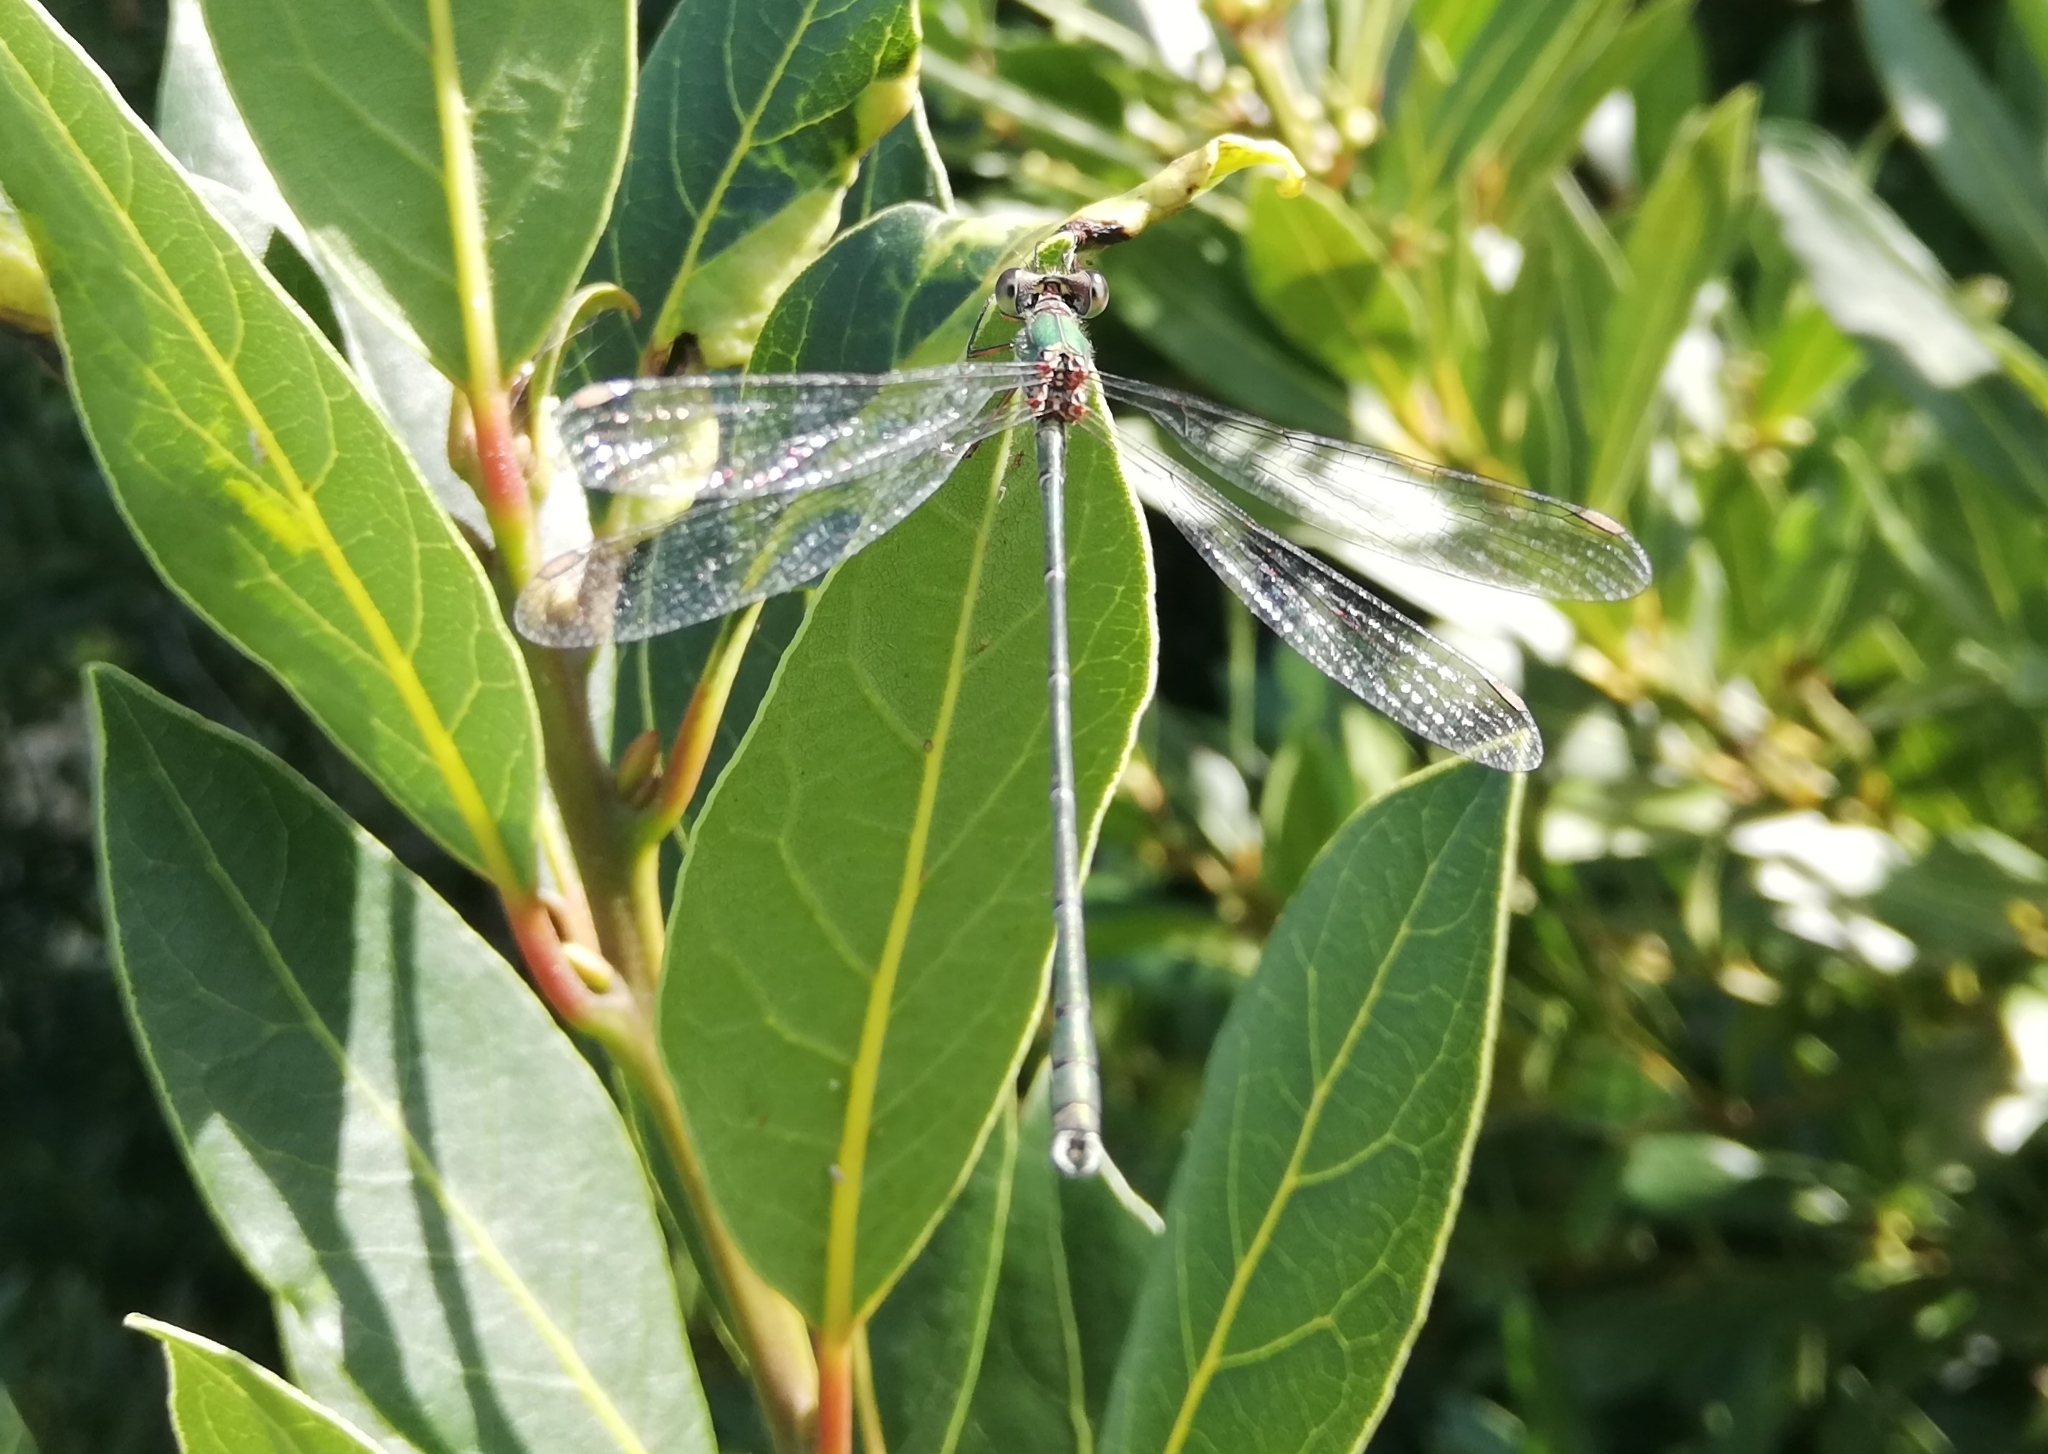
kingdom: Animalia
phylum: Arthropoda
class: Insecta
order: Odonata
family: Lestidae
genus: Chalcolestes
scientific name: Chalcolestes viridis
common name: Green emerald damselfly
